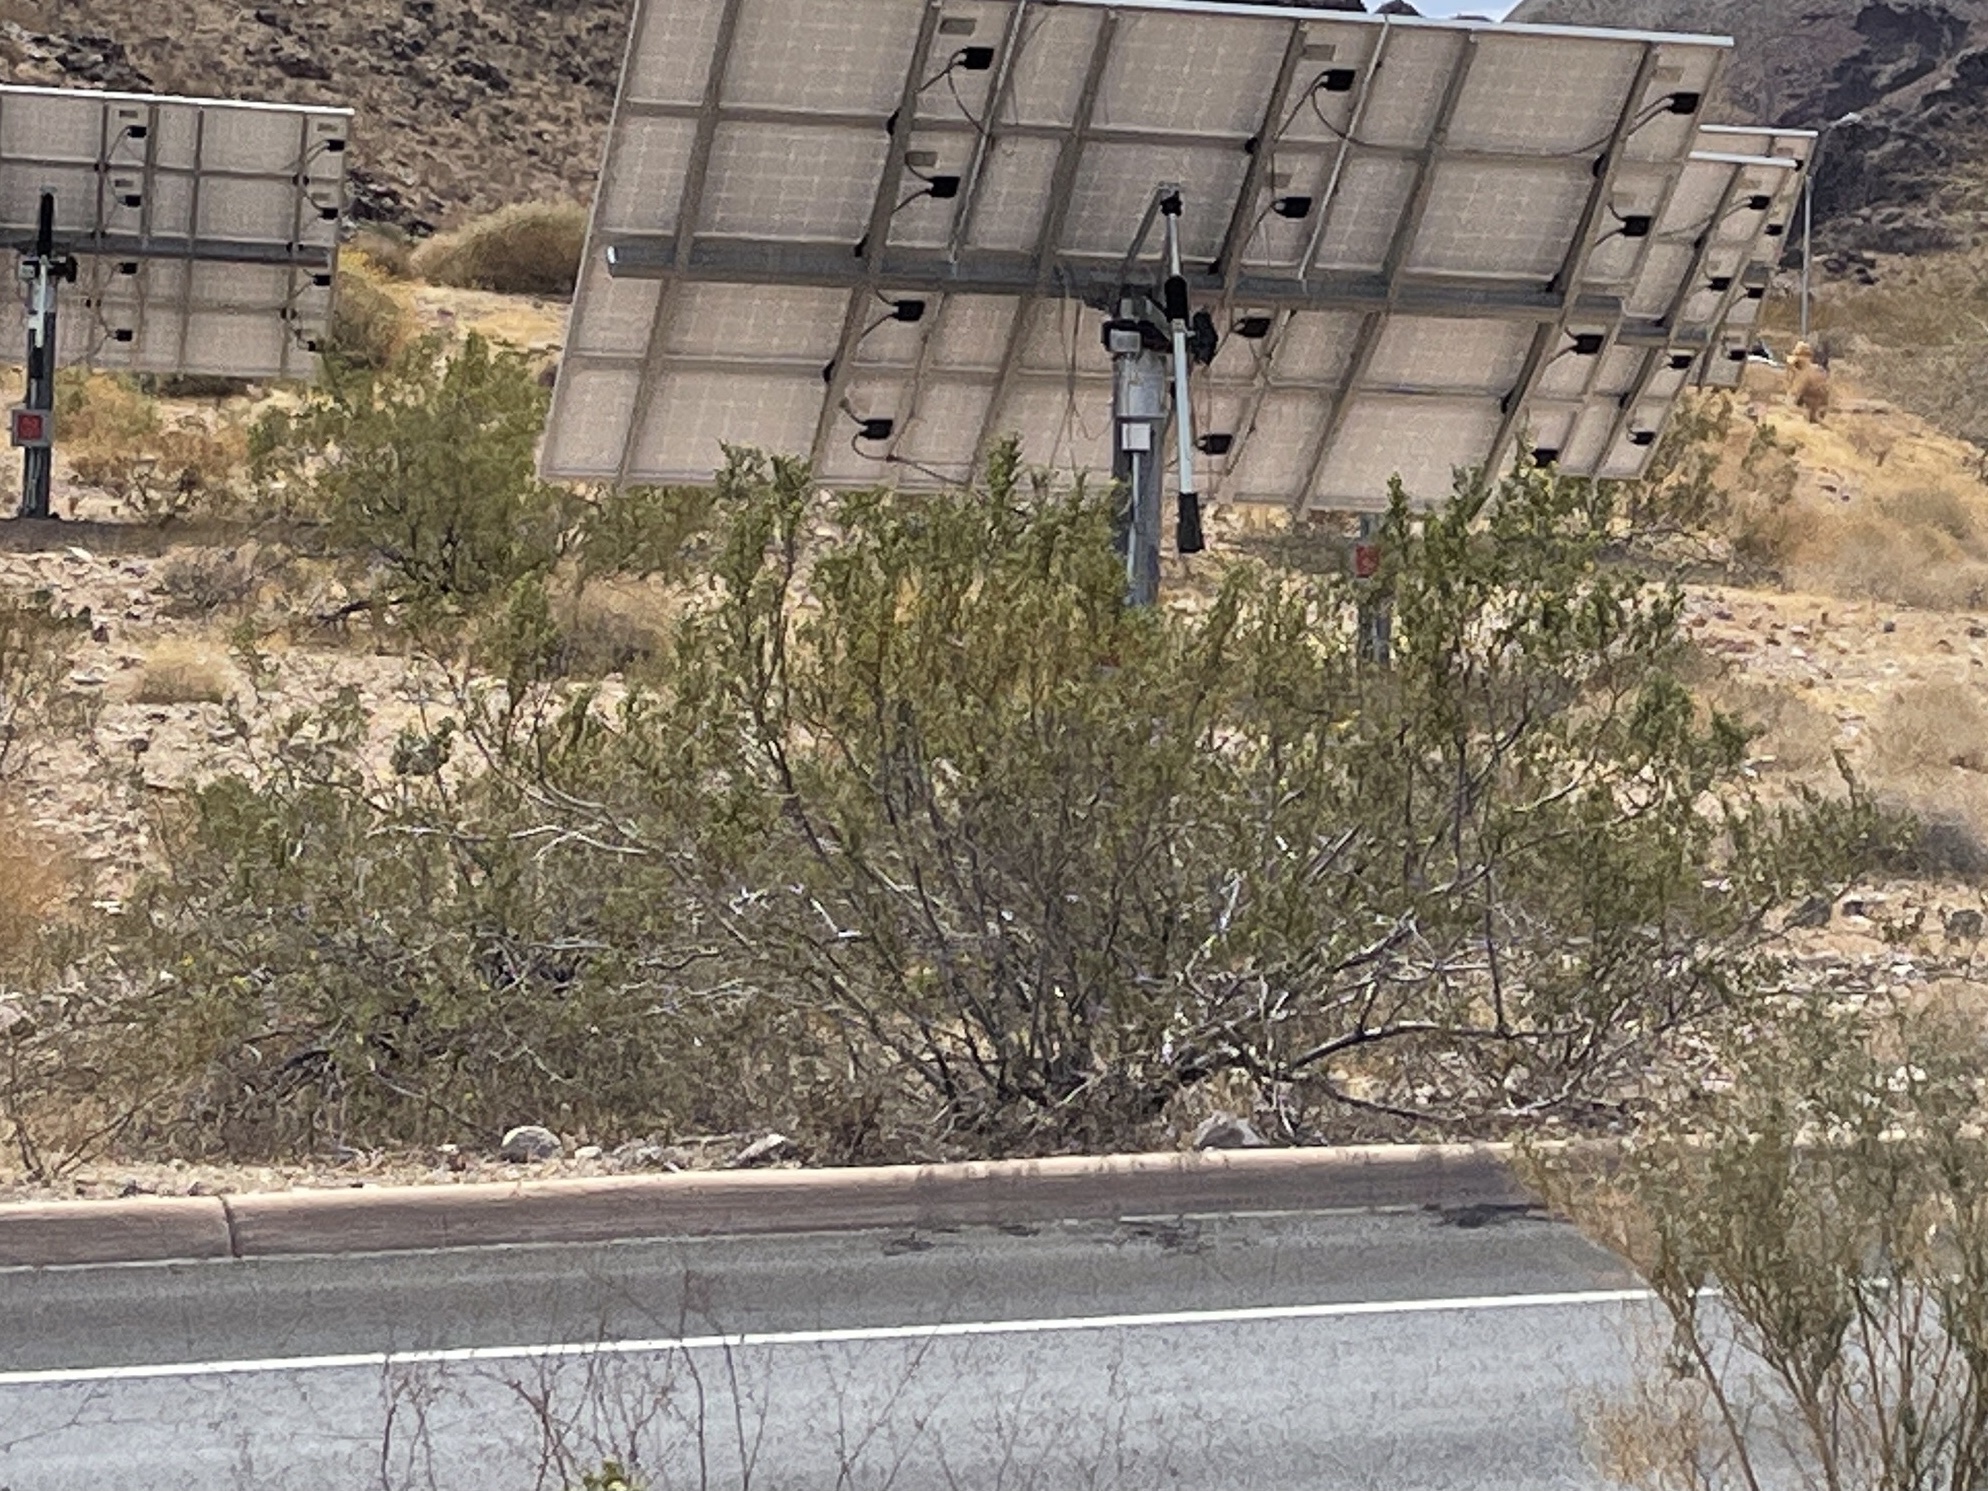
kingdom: Plantae
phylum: Tracheophyta
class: Magnoliopsida
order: Zygophyllales
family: Zygophyllaceae
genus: Larrea
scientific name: Larrea tridentata
